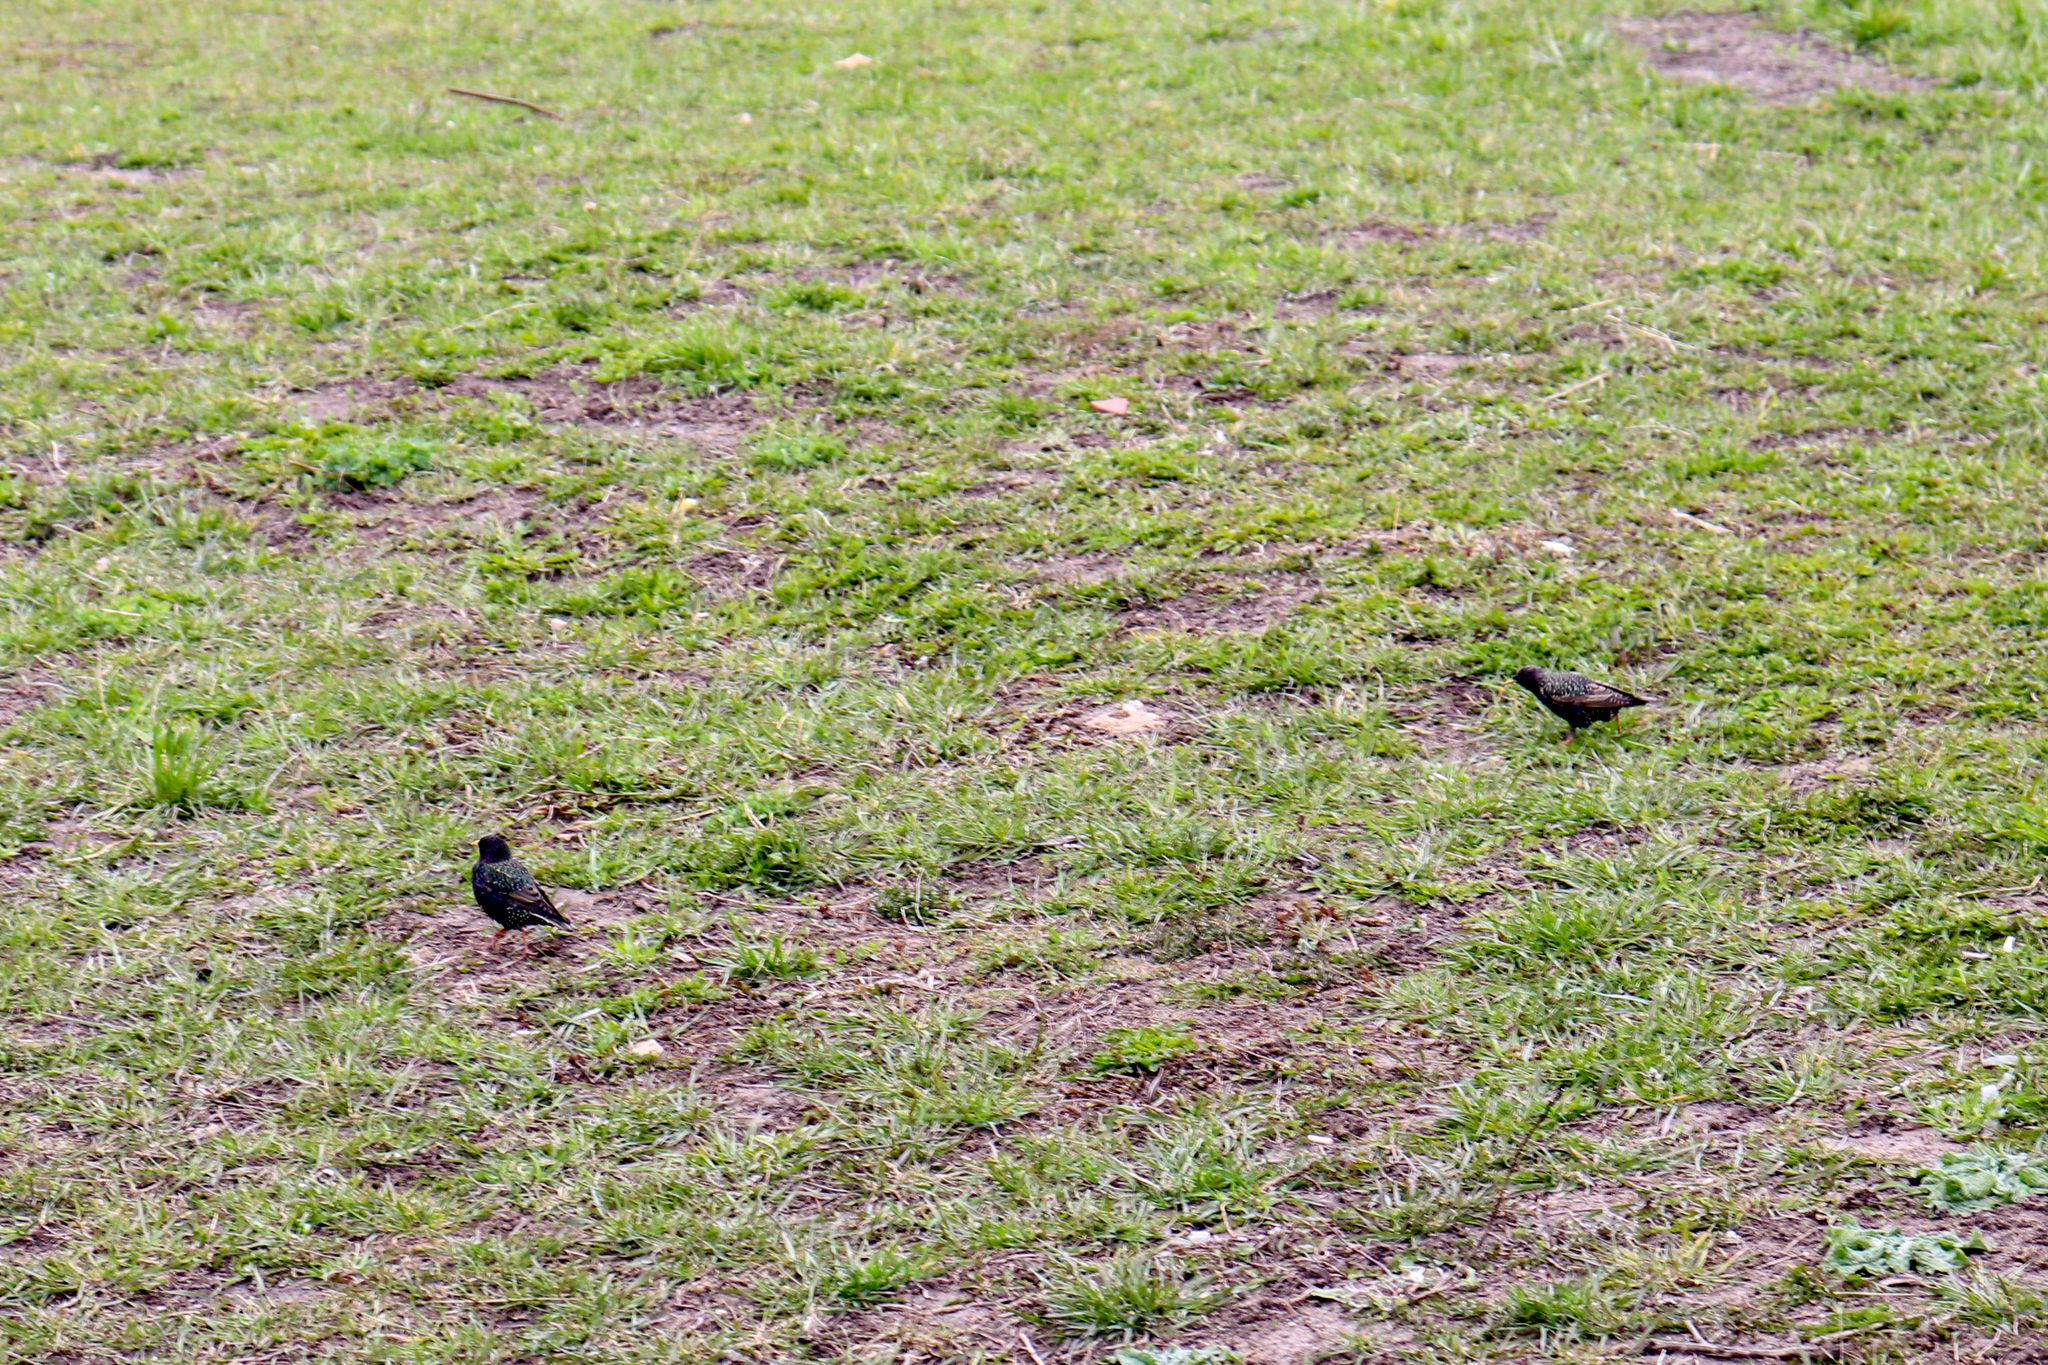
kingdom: Animalia
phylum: Chordata
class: Aves
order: Passeriformes
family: Sturnidae
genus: Sturnus
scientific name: Sturnus vulgaris
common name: Common starling
